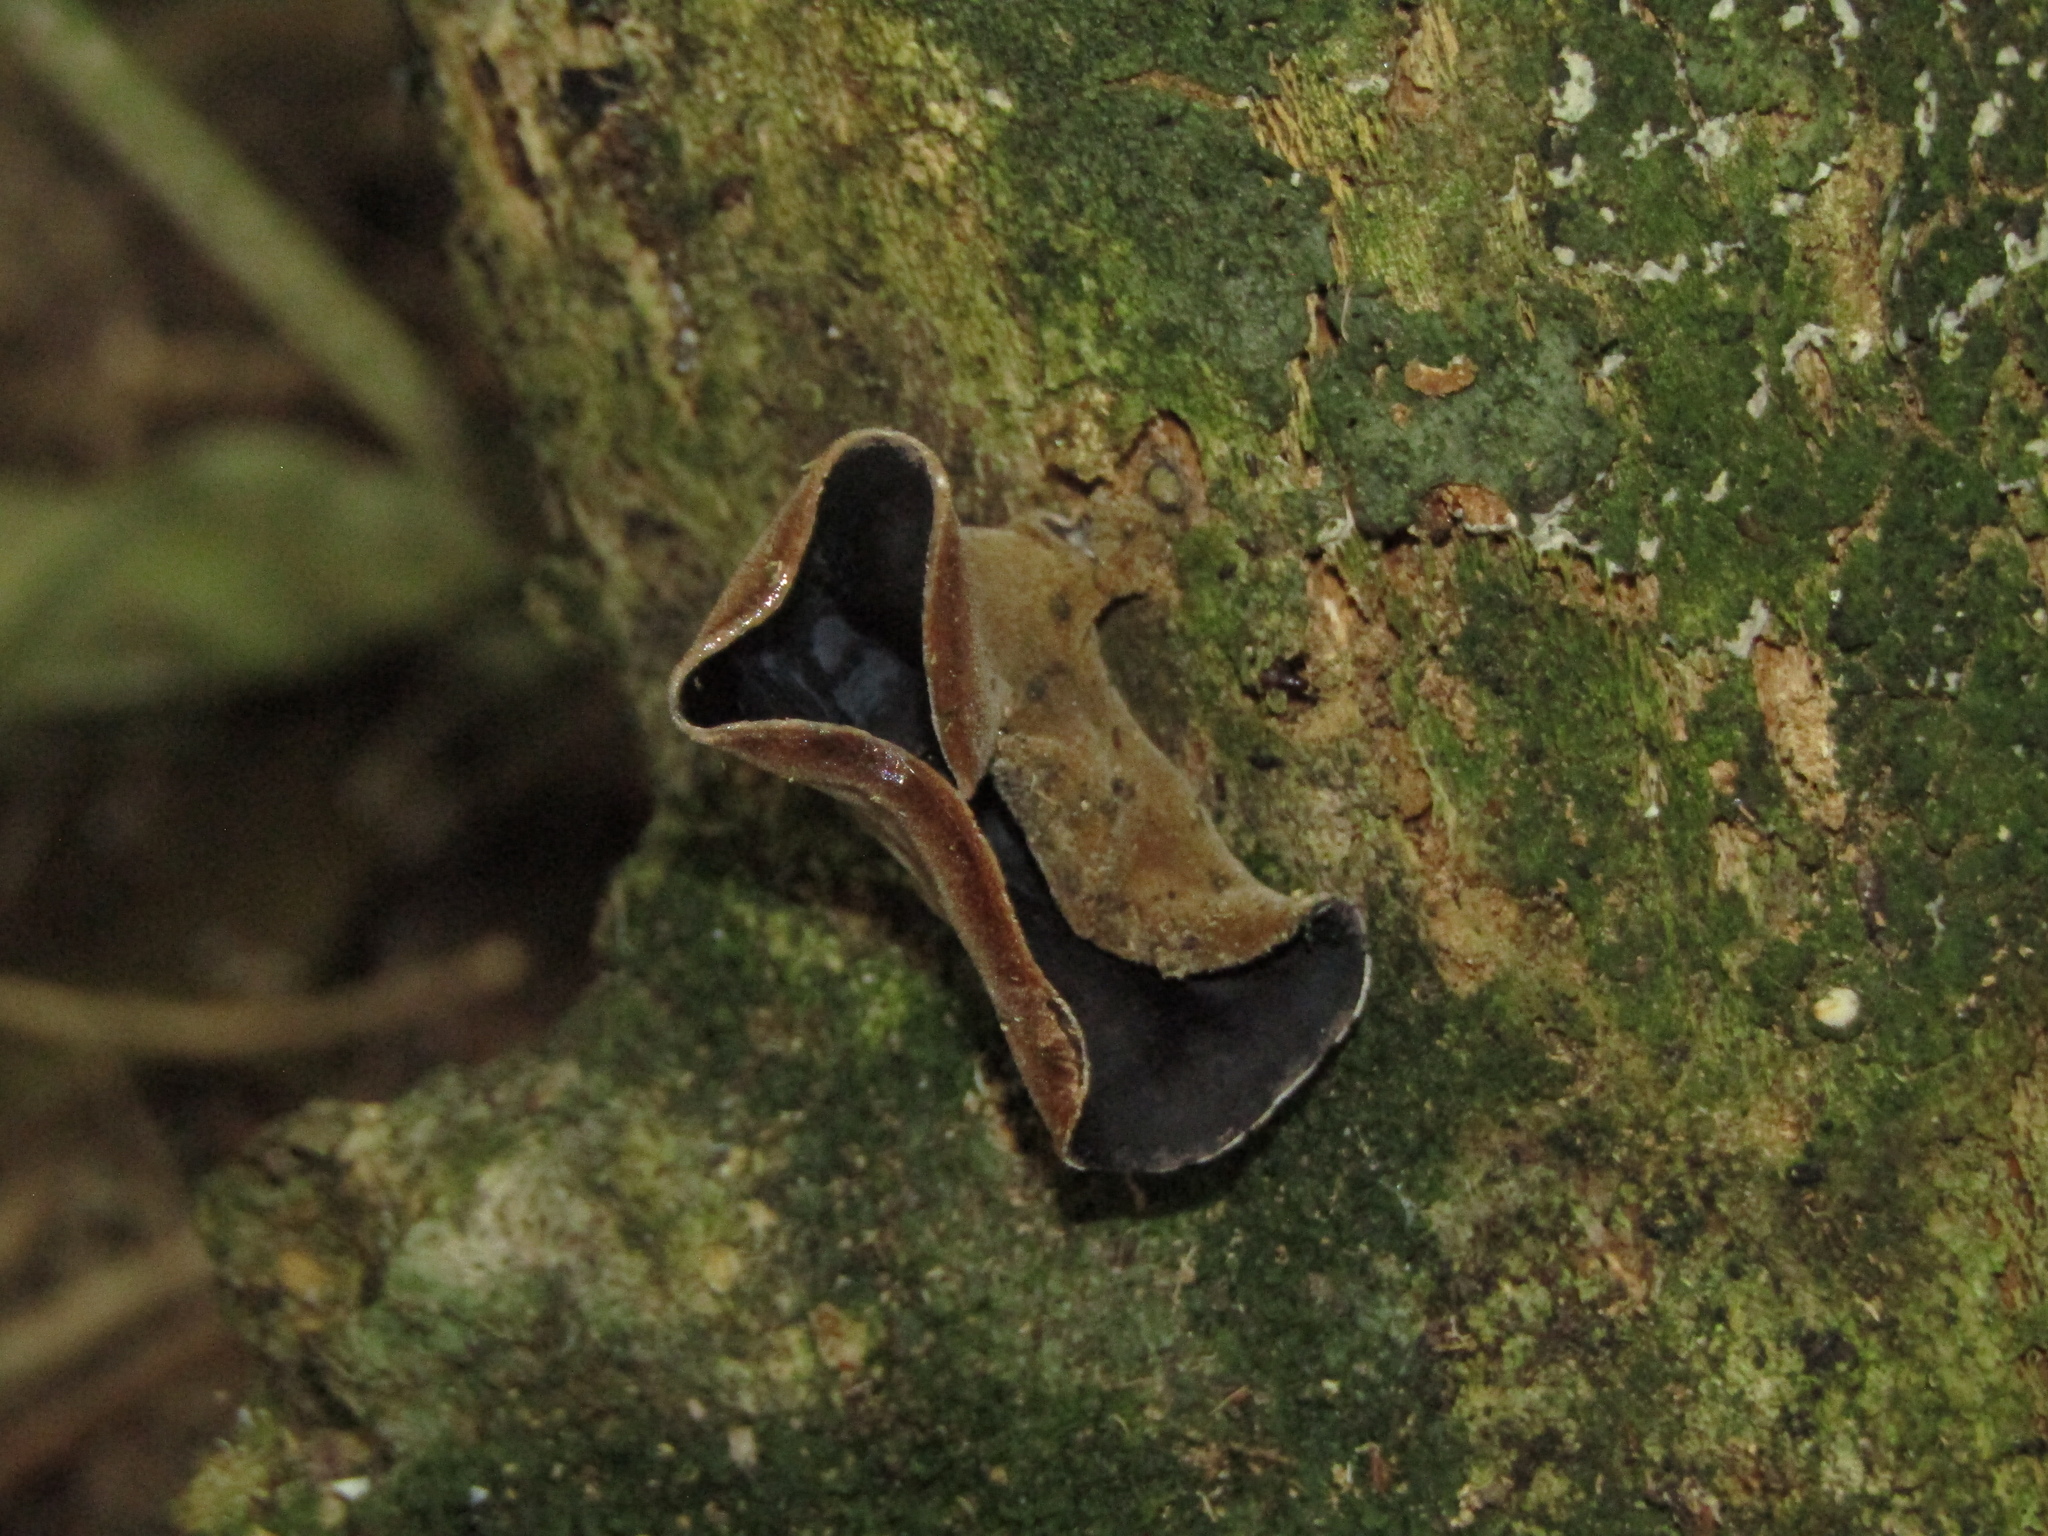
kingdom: Fungi
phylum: Basidiomycota
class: Agaricomycetes
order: Auriculariales
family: Auriculariaceae
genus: Auricularia
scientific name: Auricularia cornea
